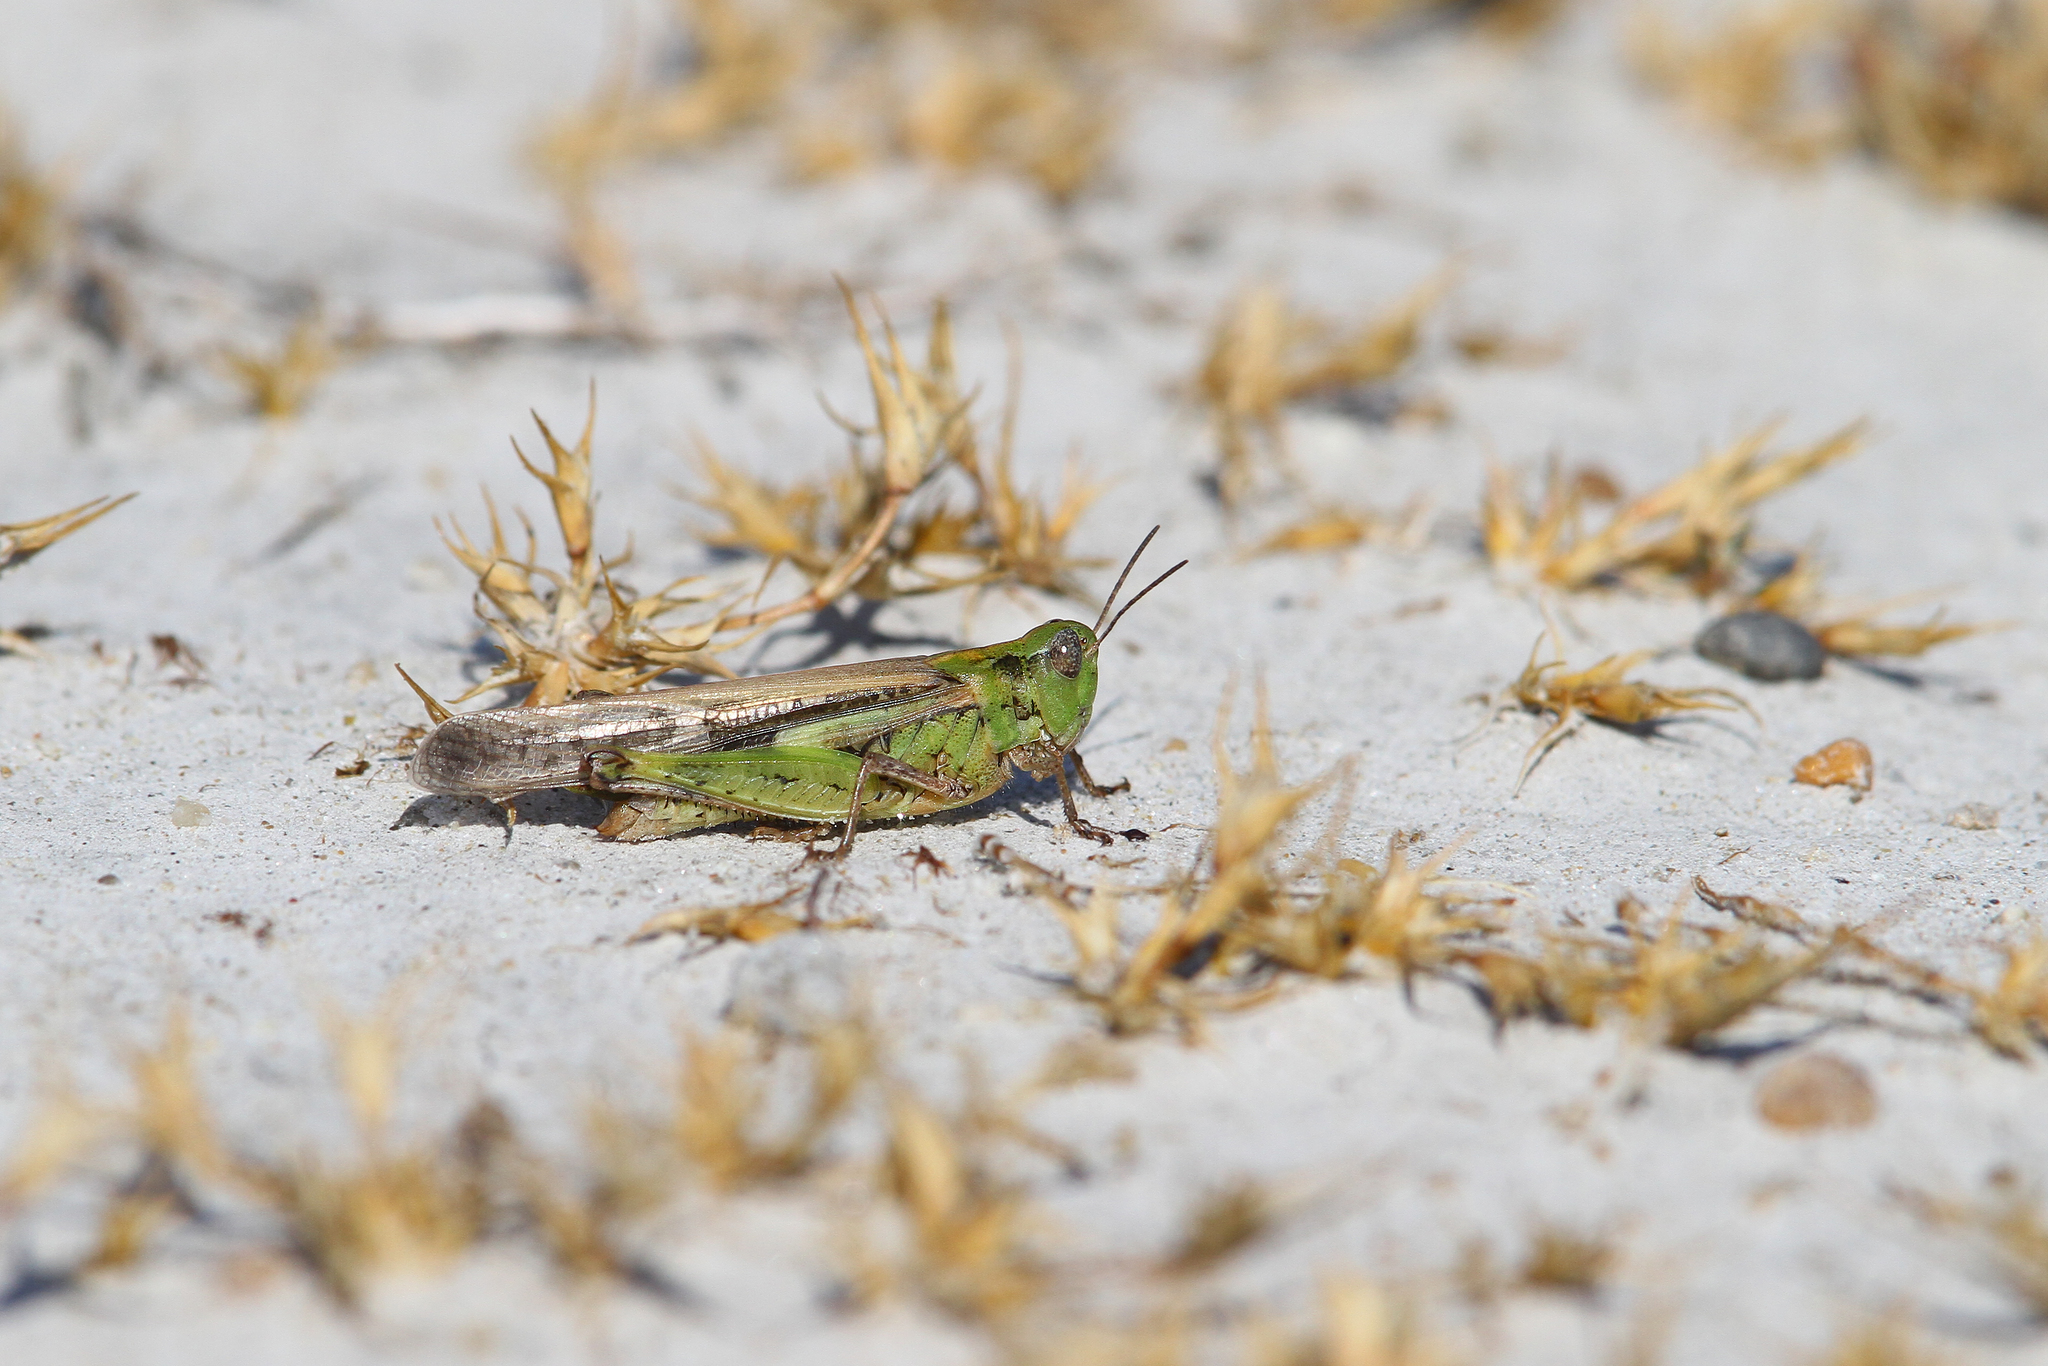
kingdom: Animalia
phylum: Arthropoda
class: Insecta
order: Orthoptera
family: Acrididae
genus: Aiolopus
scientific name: Aiolopus thalassinus
